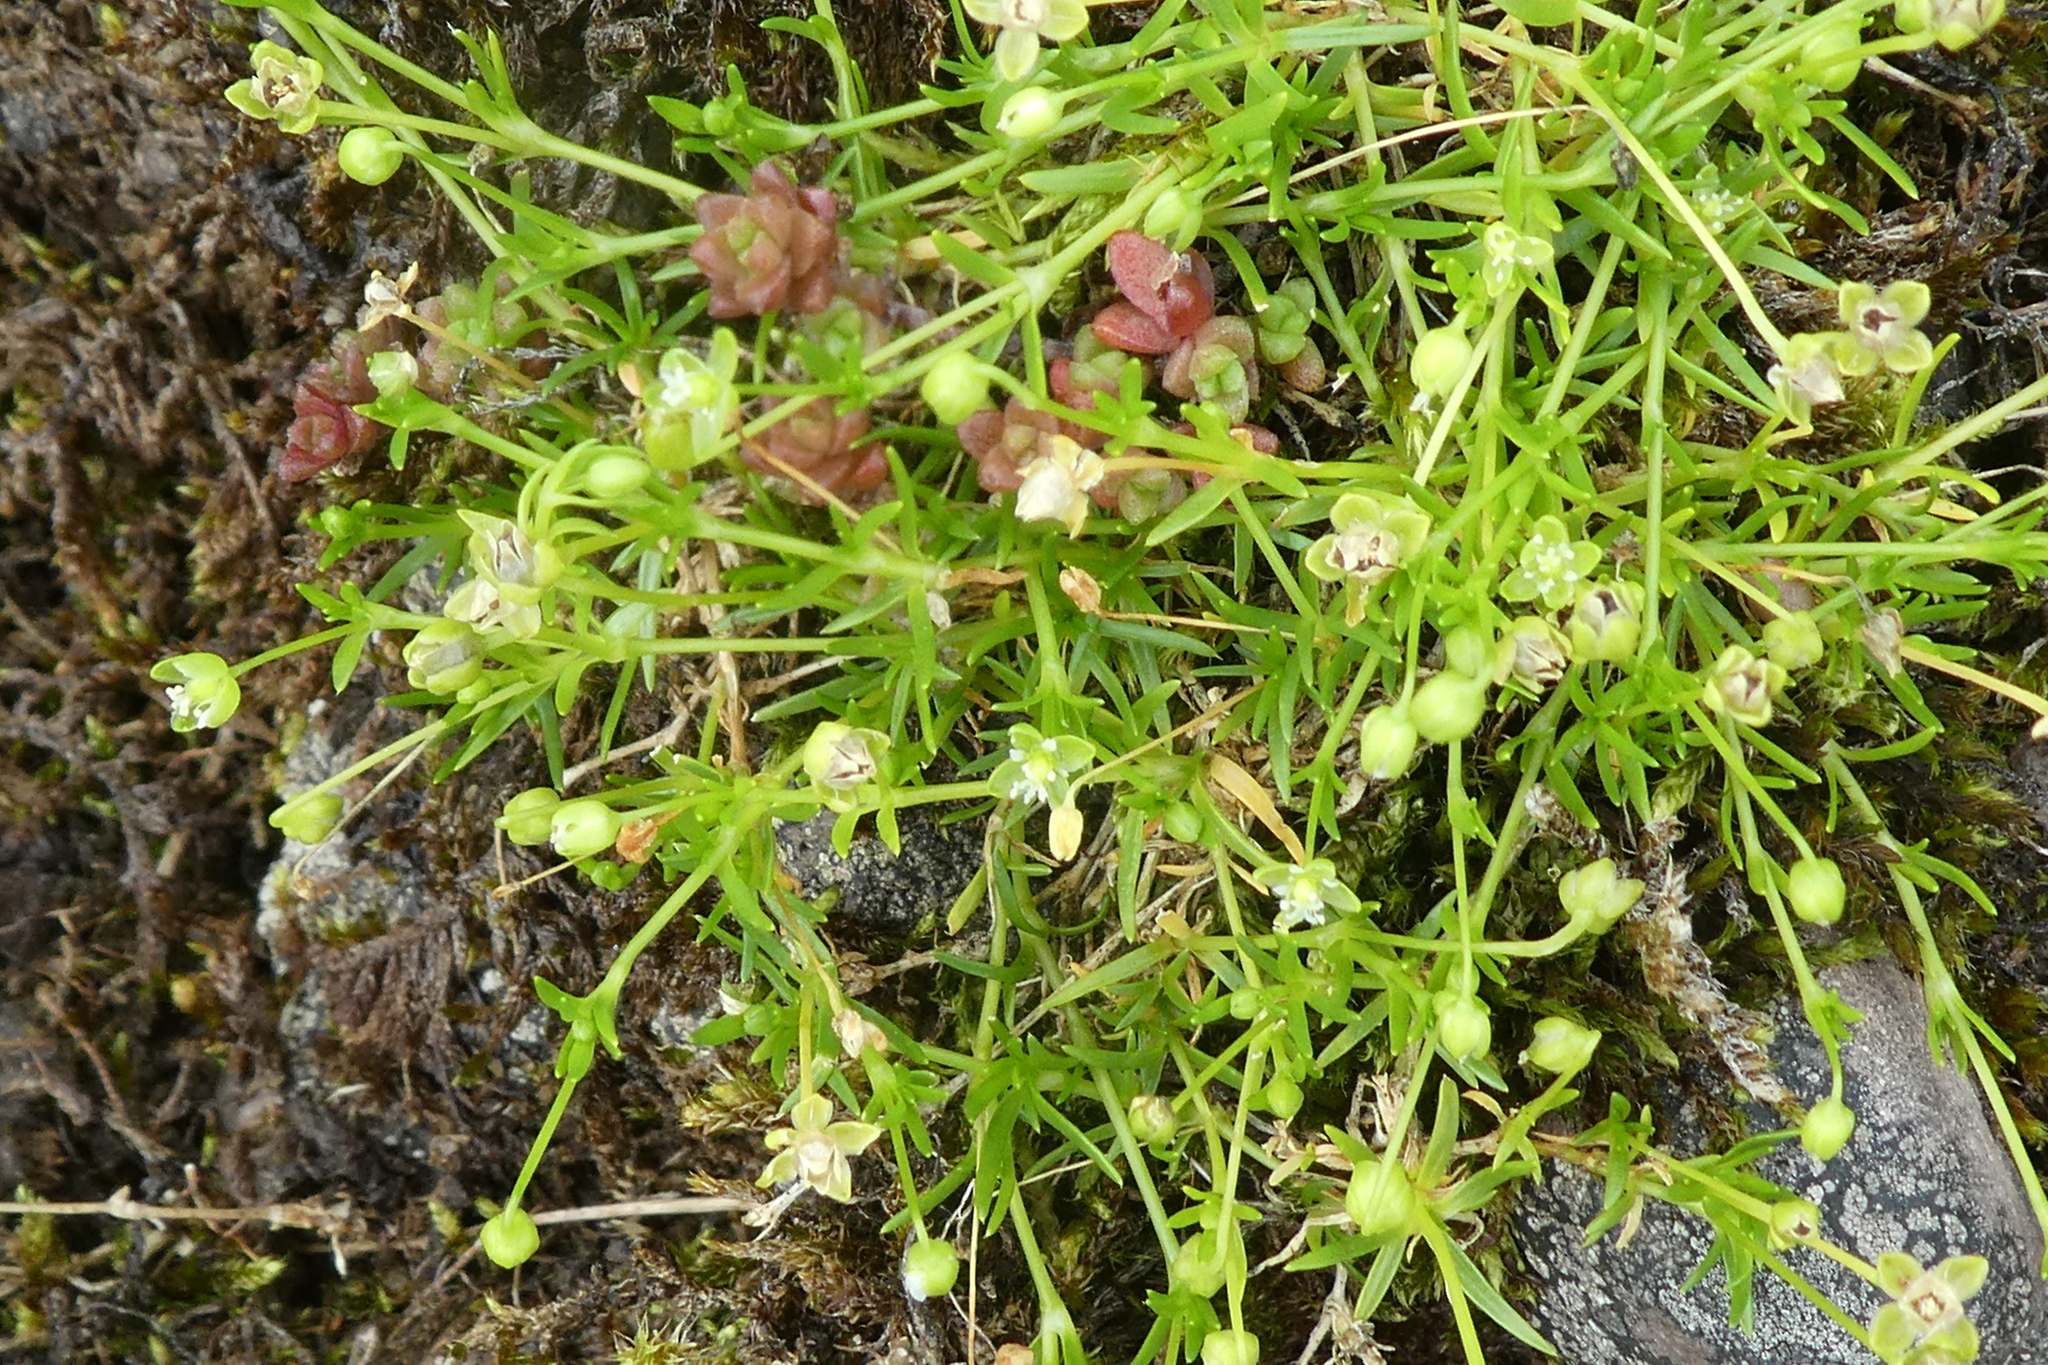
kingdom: Plantae
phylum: Tracheophyta
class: Magnoliopsida
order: Caryophyllales
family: Caryophyllaceae
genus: Sagina
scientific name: Sagina procumbens
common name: Procumbent pearlwort
